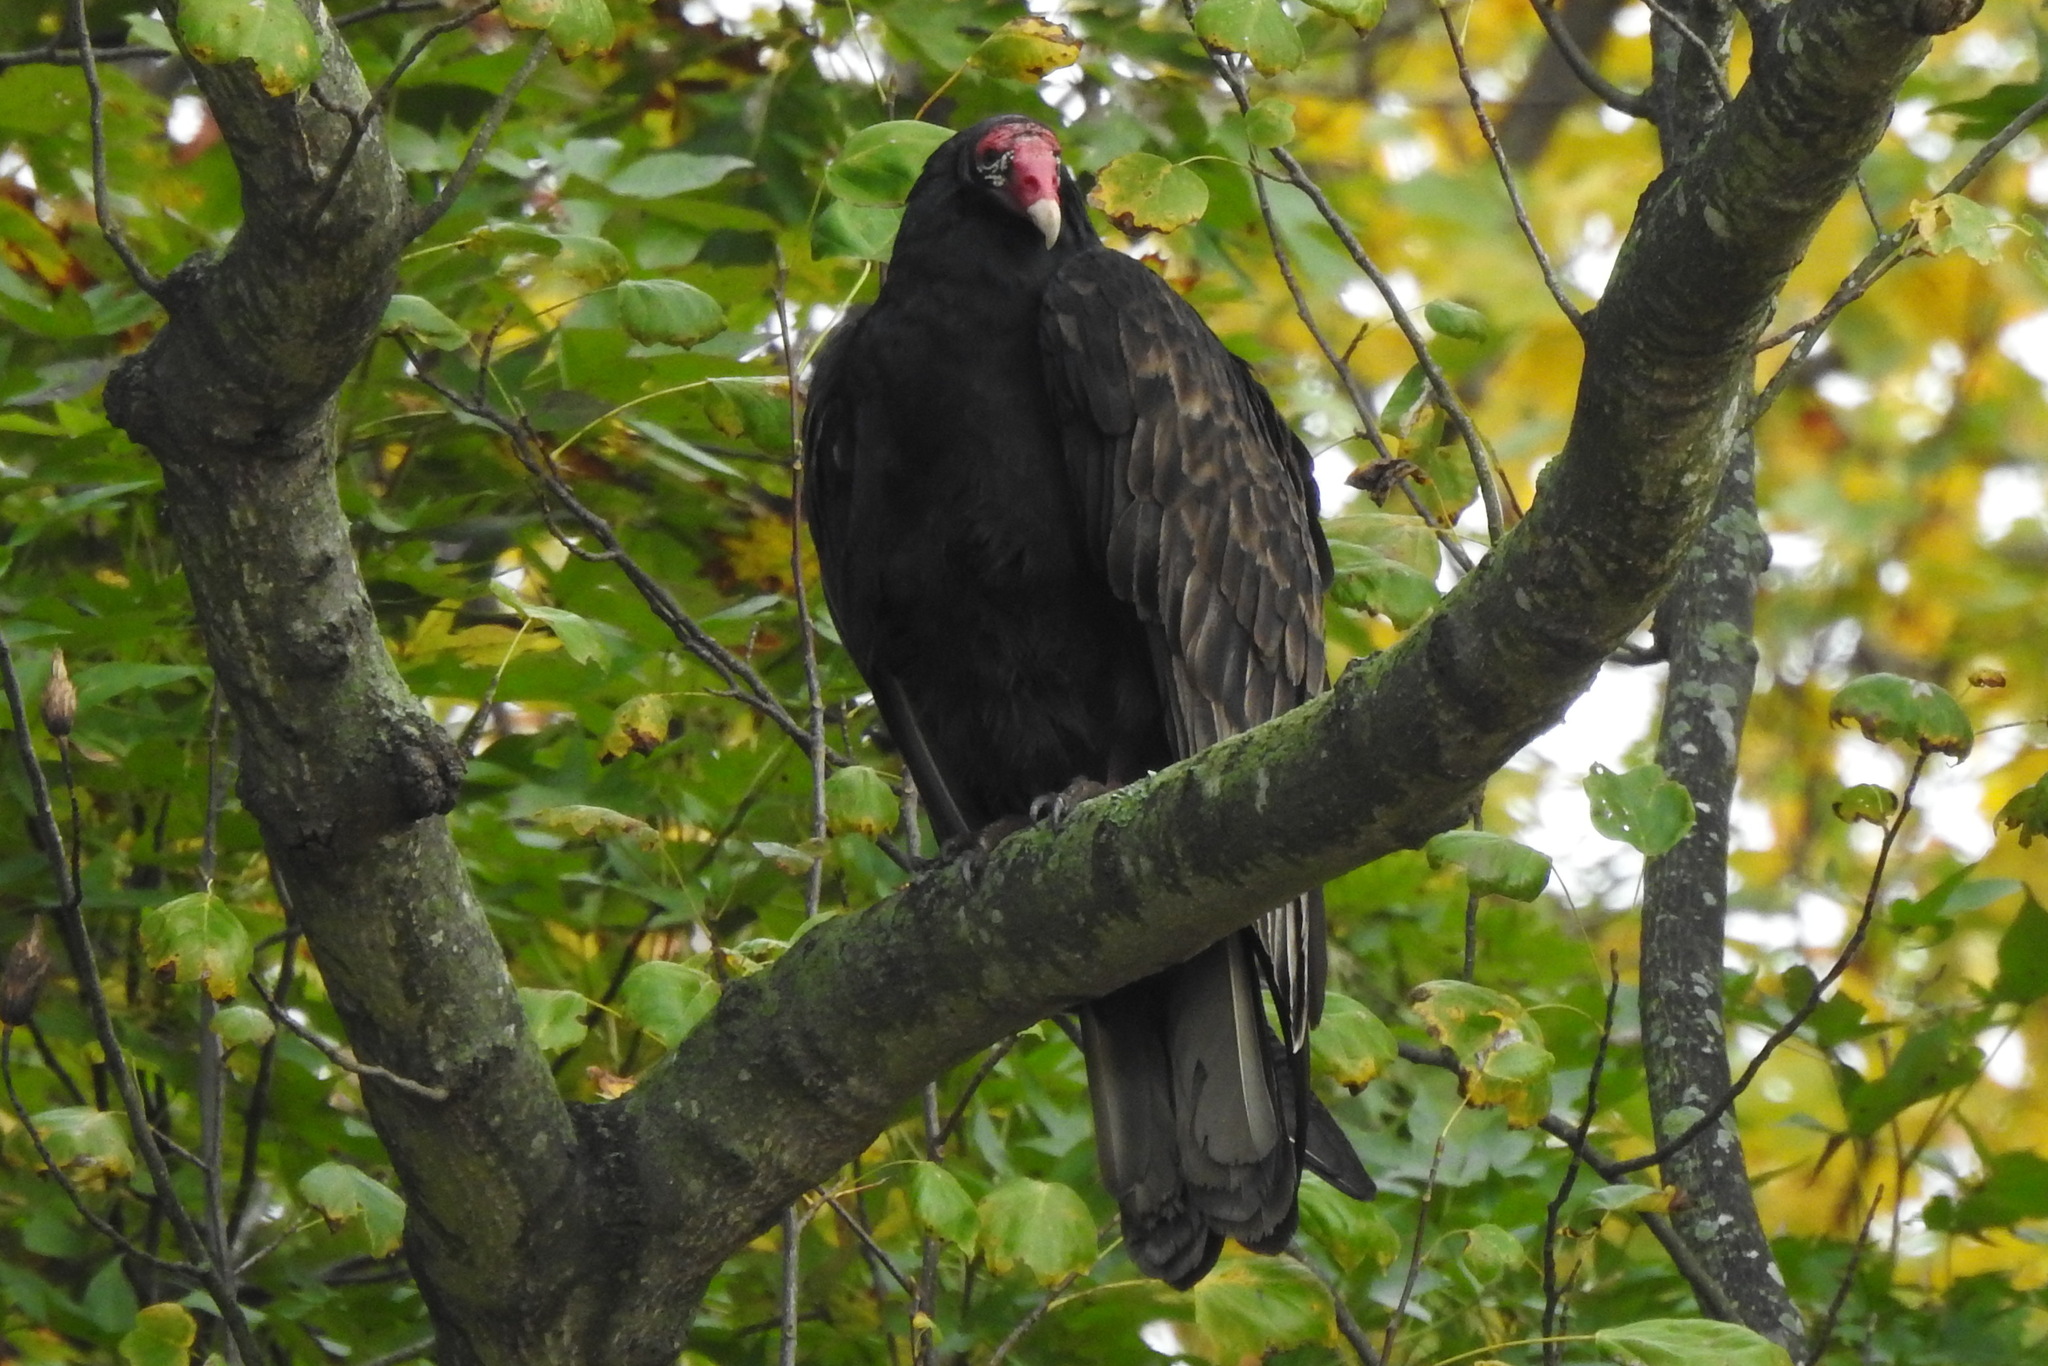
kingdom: Animalia
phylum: Chordata
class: Aves
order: Accipitriformes
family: Cathartidae
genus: Cathartes
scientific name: Cathartes aura
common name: Turkey vulture
